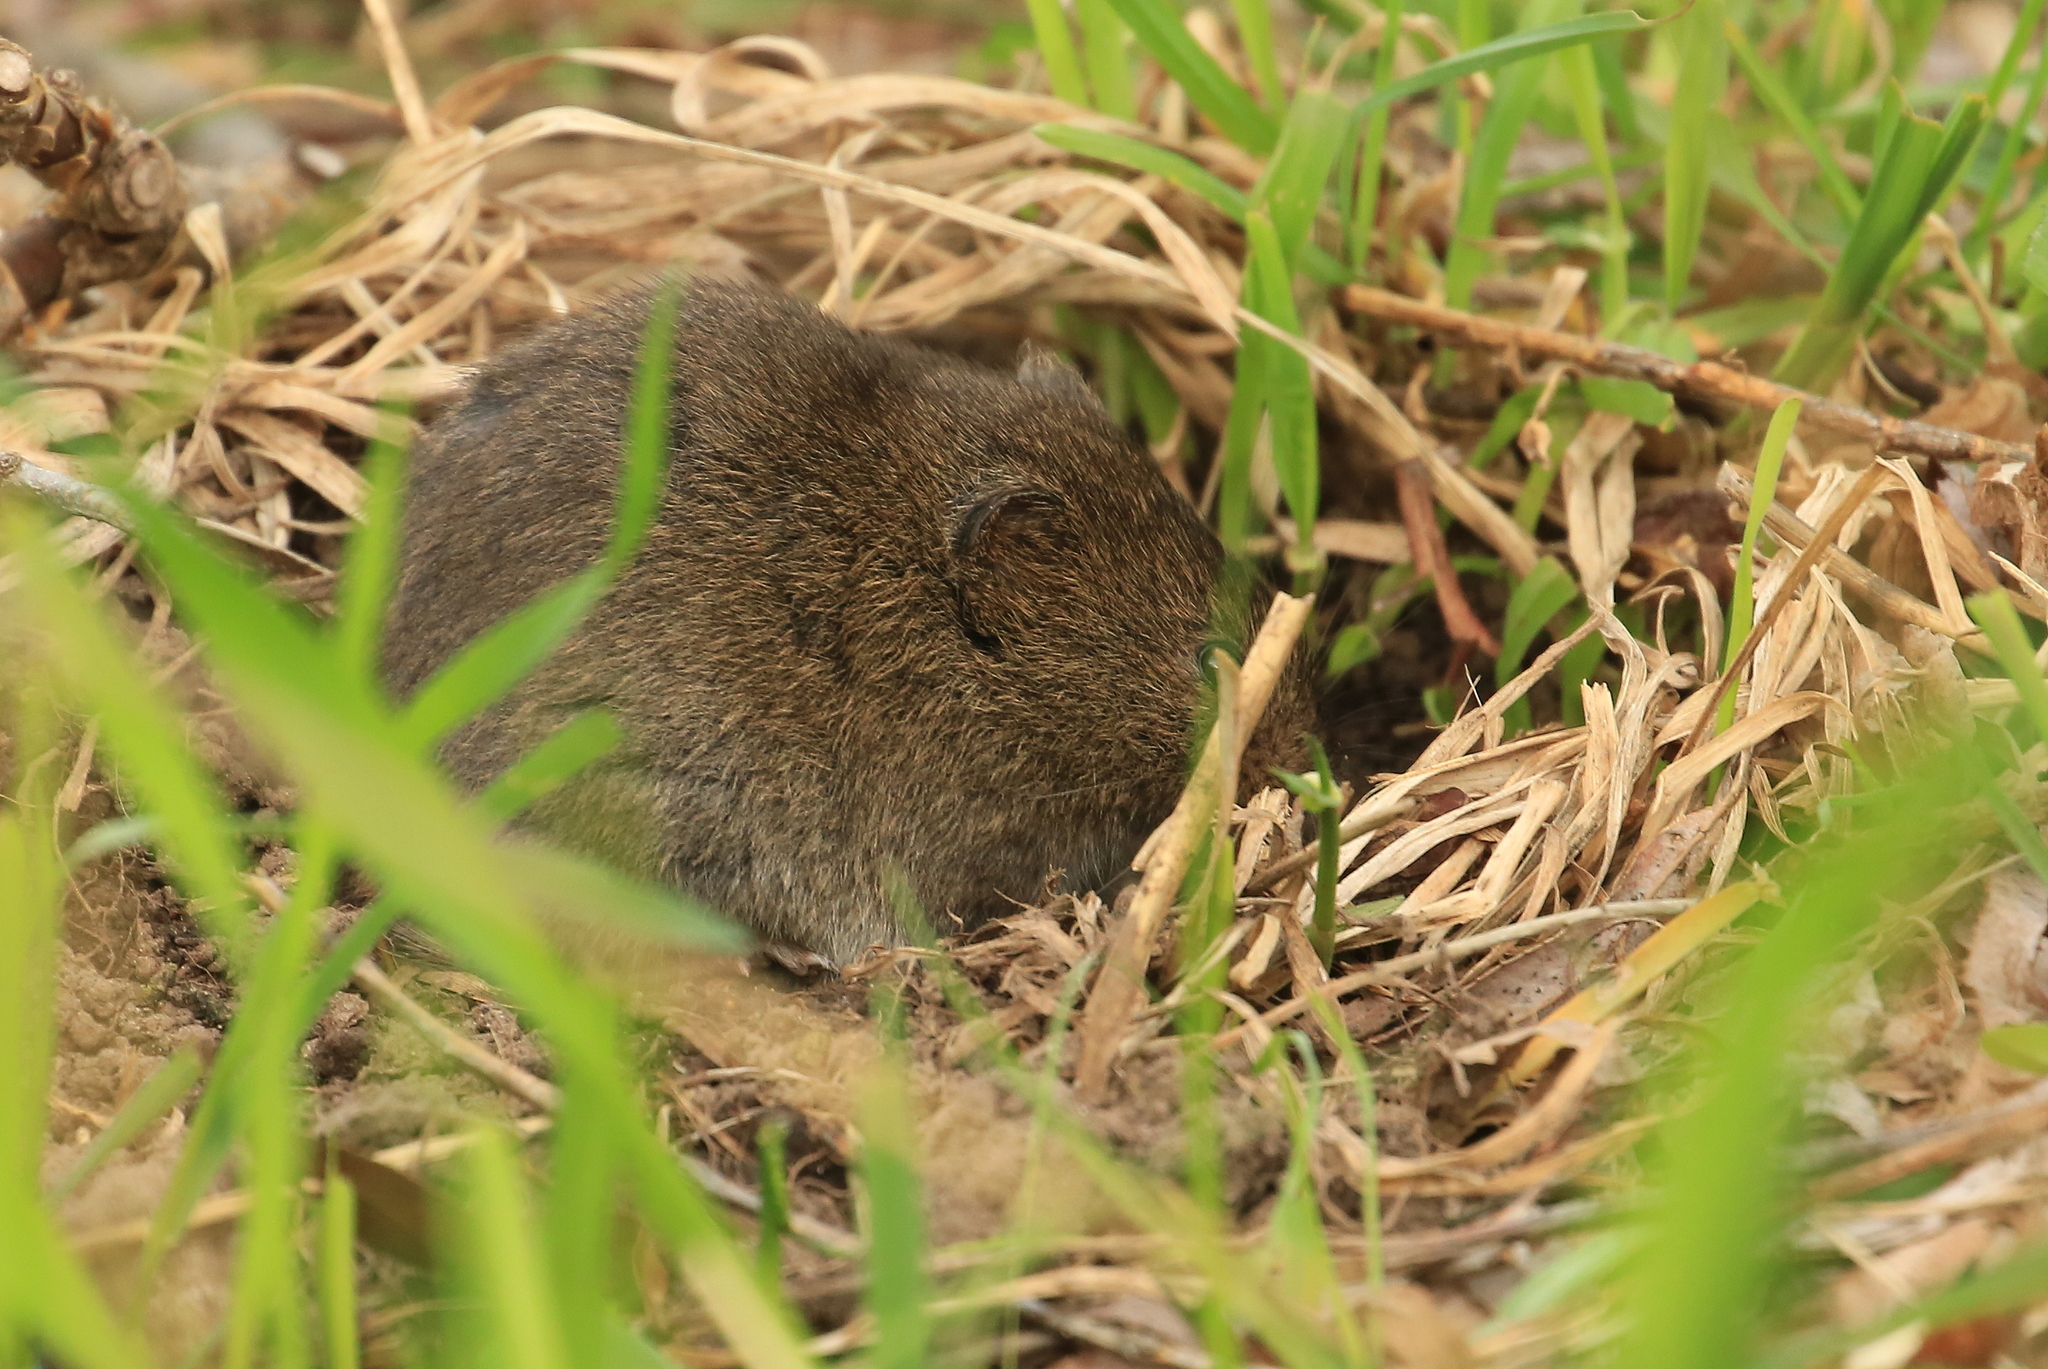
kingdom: Animalia
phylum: Chordata
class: Mammalia
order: Rodentia
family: Cricetidae
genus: Microtus
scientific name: Microtus pennsylvanicus
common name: Meadow vole
